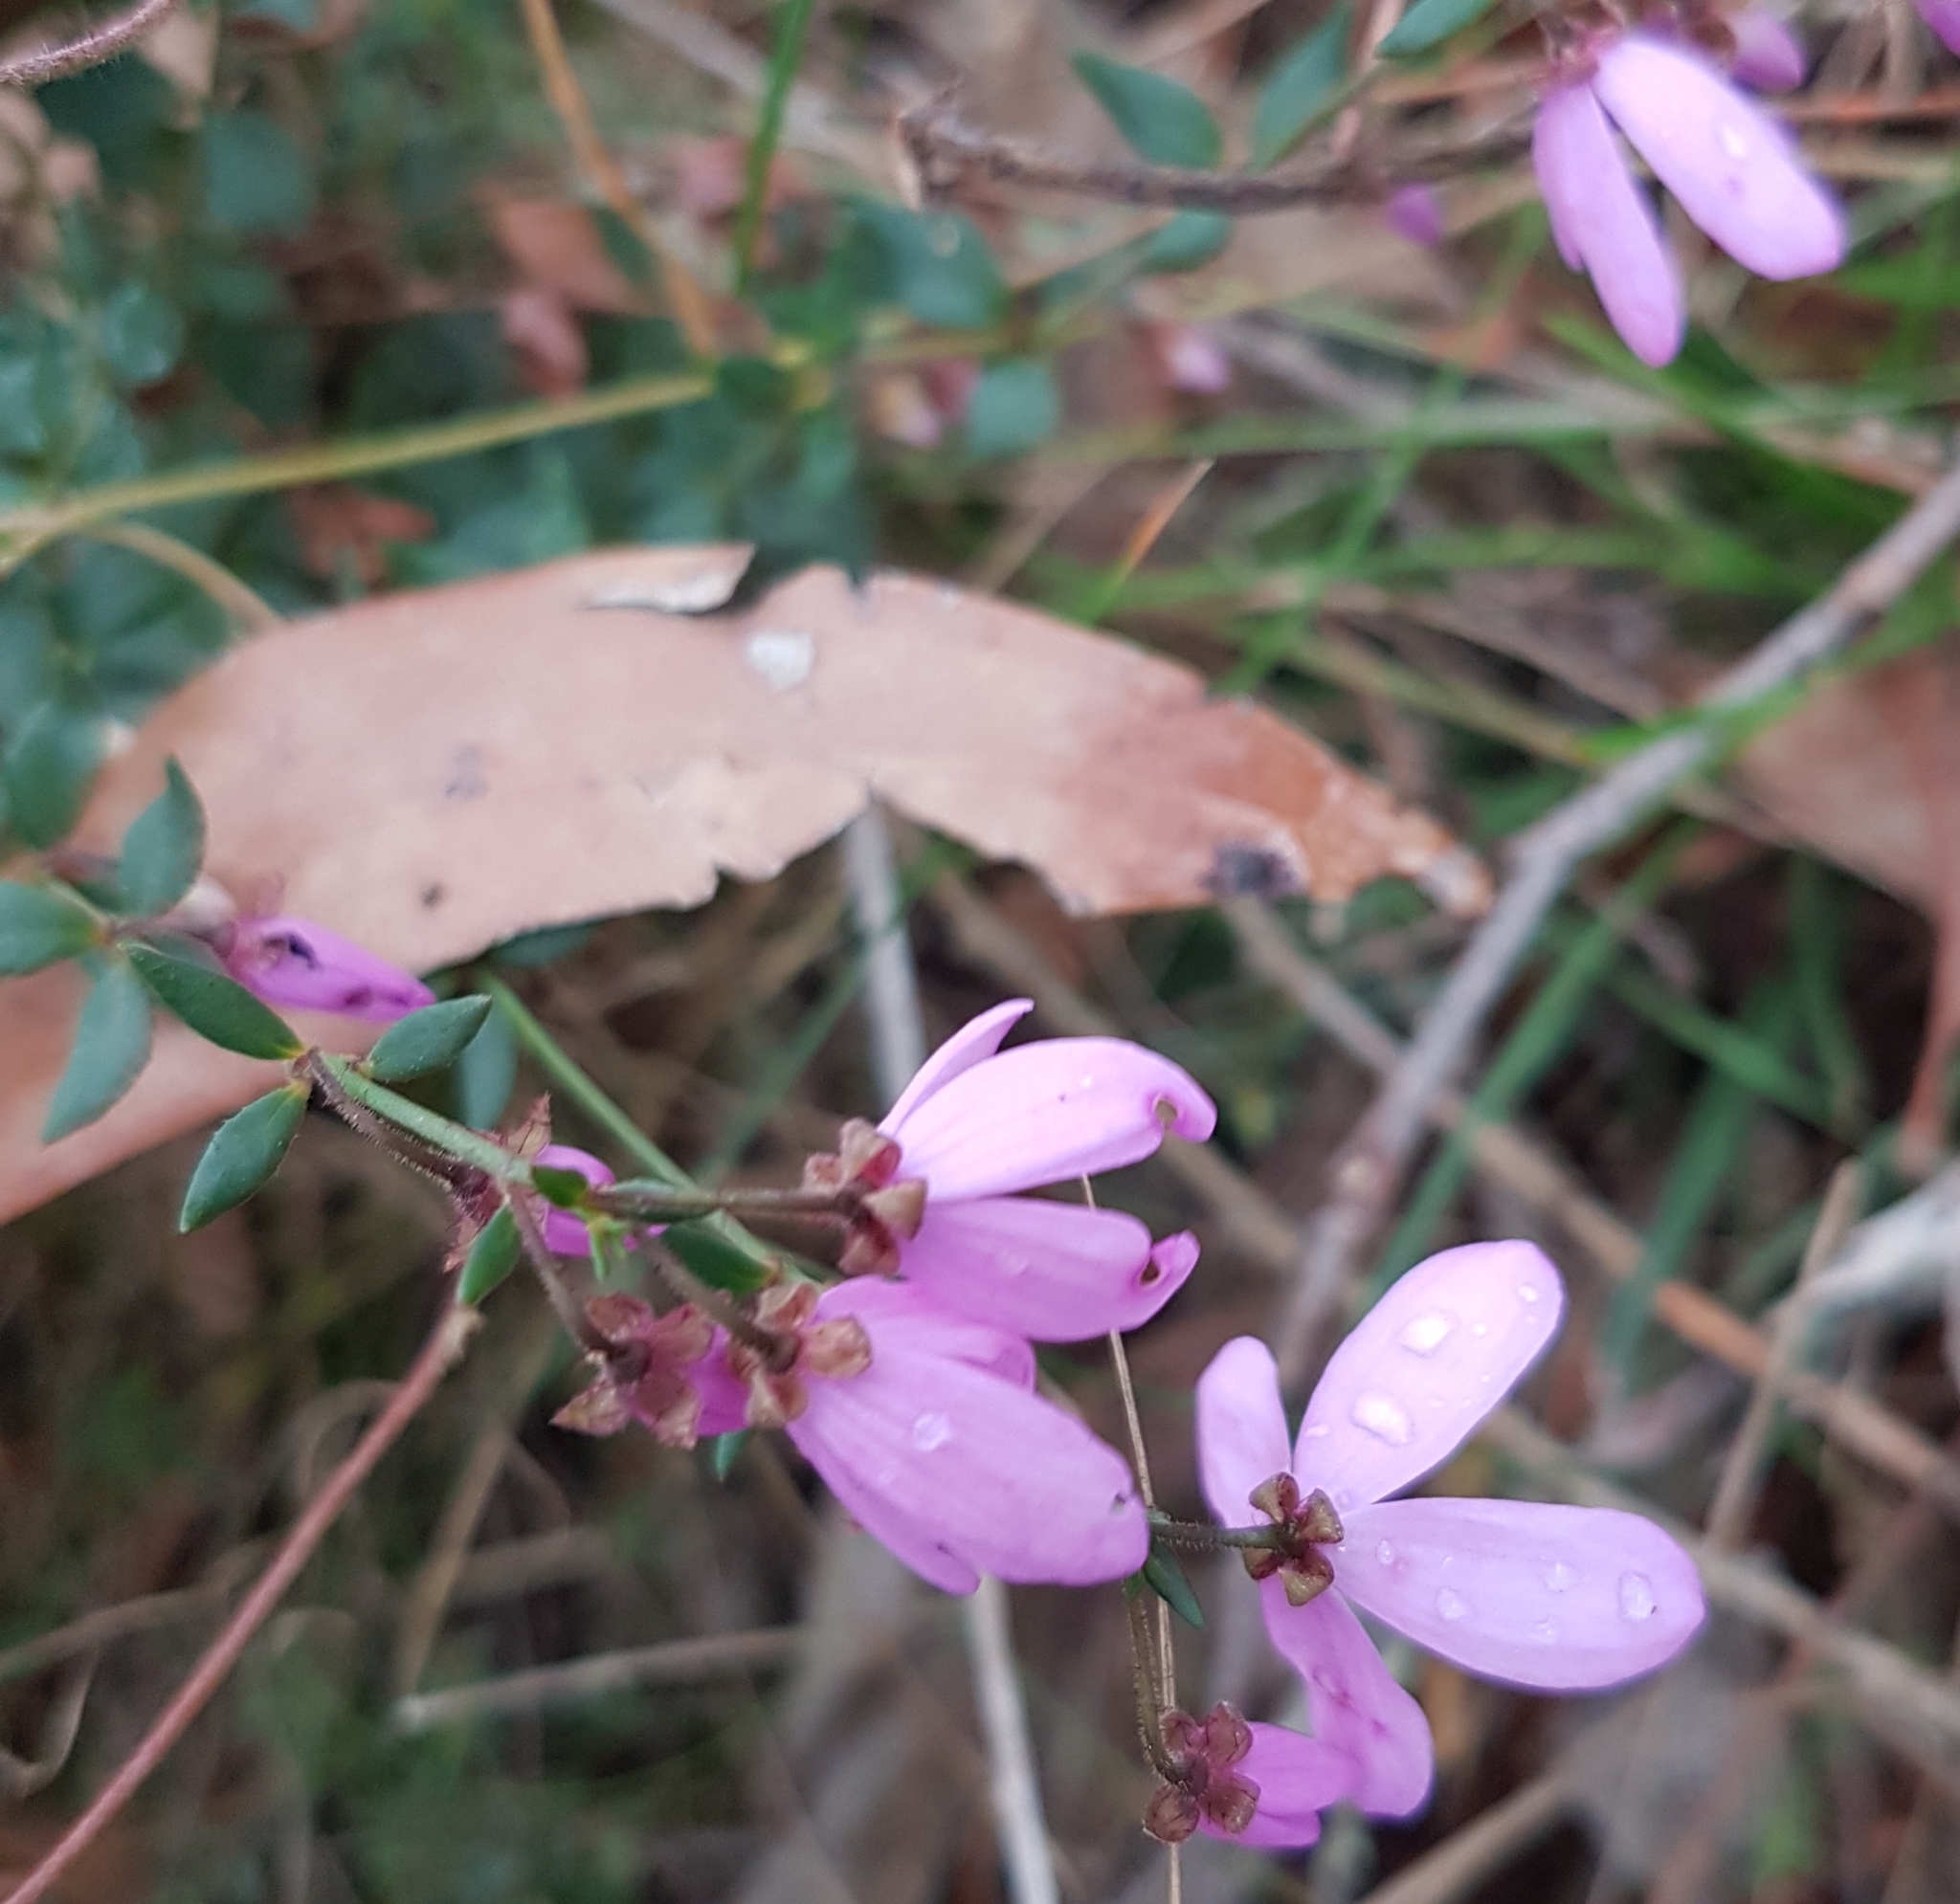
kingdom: Plantae
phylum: Tracheophyta
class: Magnoliopsida
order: Oxalidales
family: Elaeocarpaceae
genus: Tetratheca
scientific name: Tetratheca ciliata
